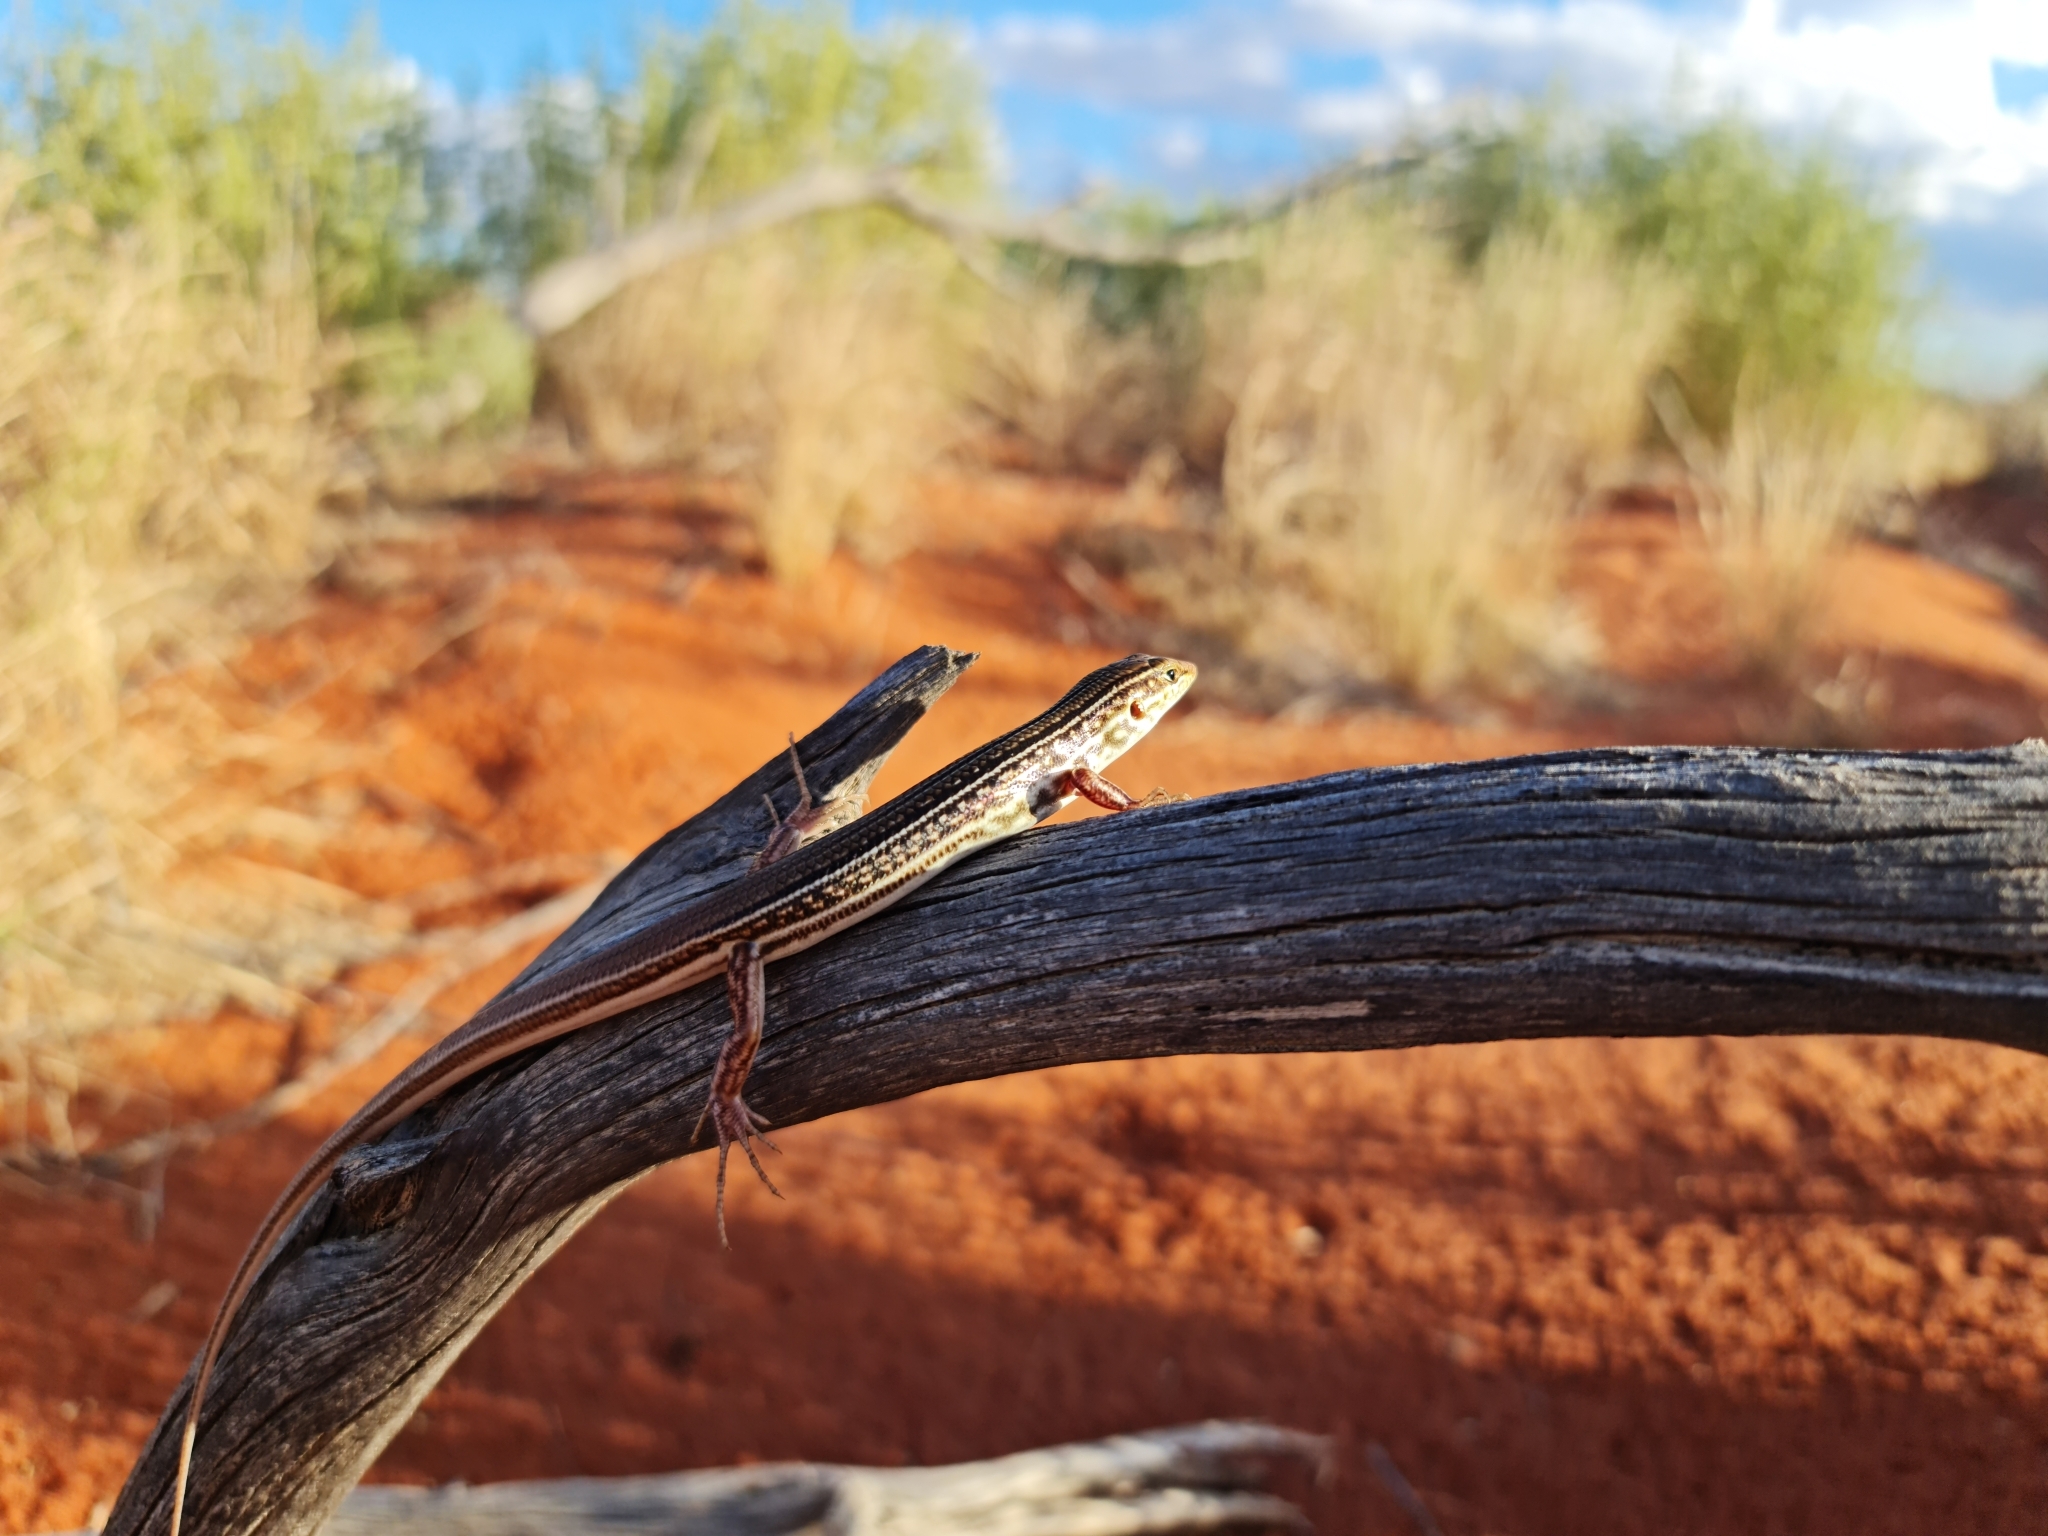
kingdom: Animalia
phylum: Chordata
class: Squamata
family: Scincidae
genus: Ctenotus
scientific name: Ctenotus regius
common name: Pale-rumped ctenotus
